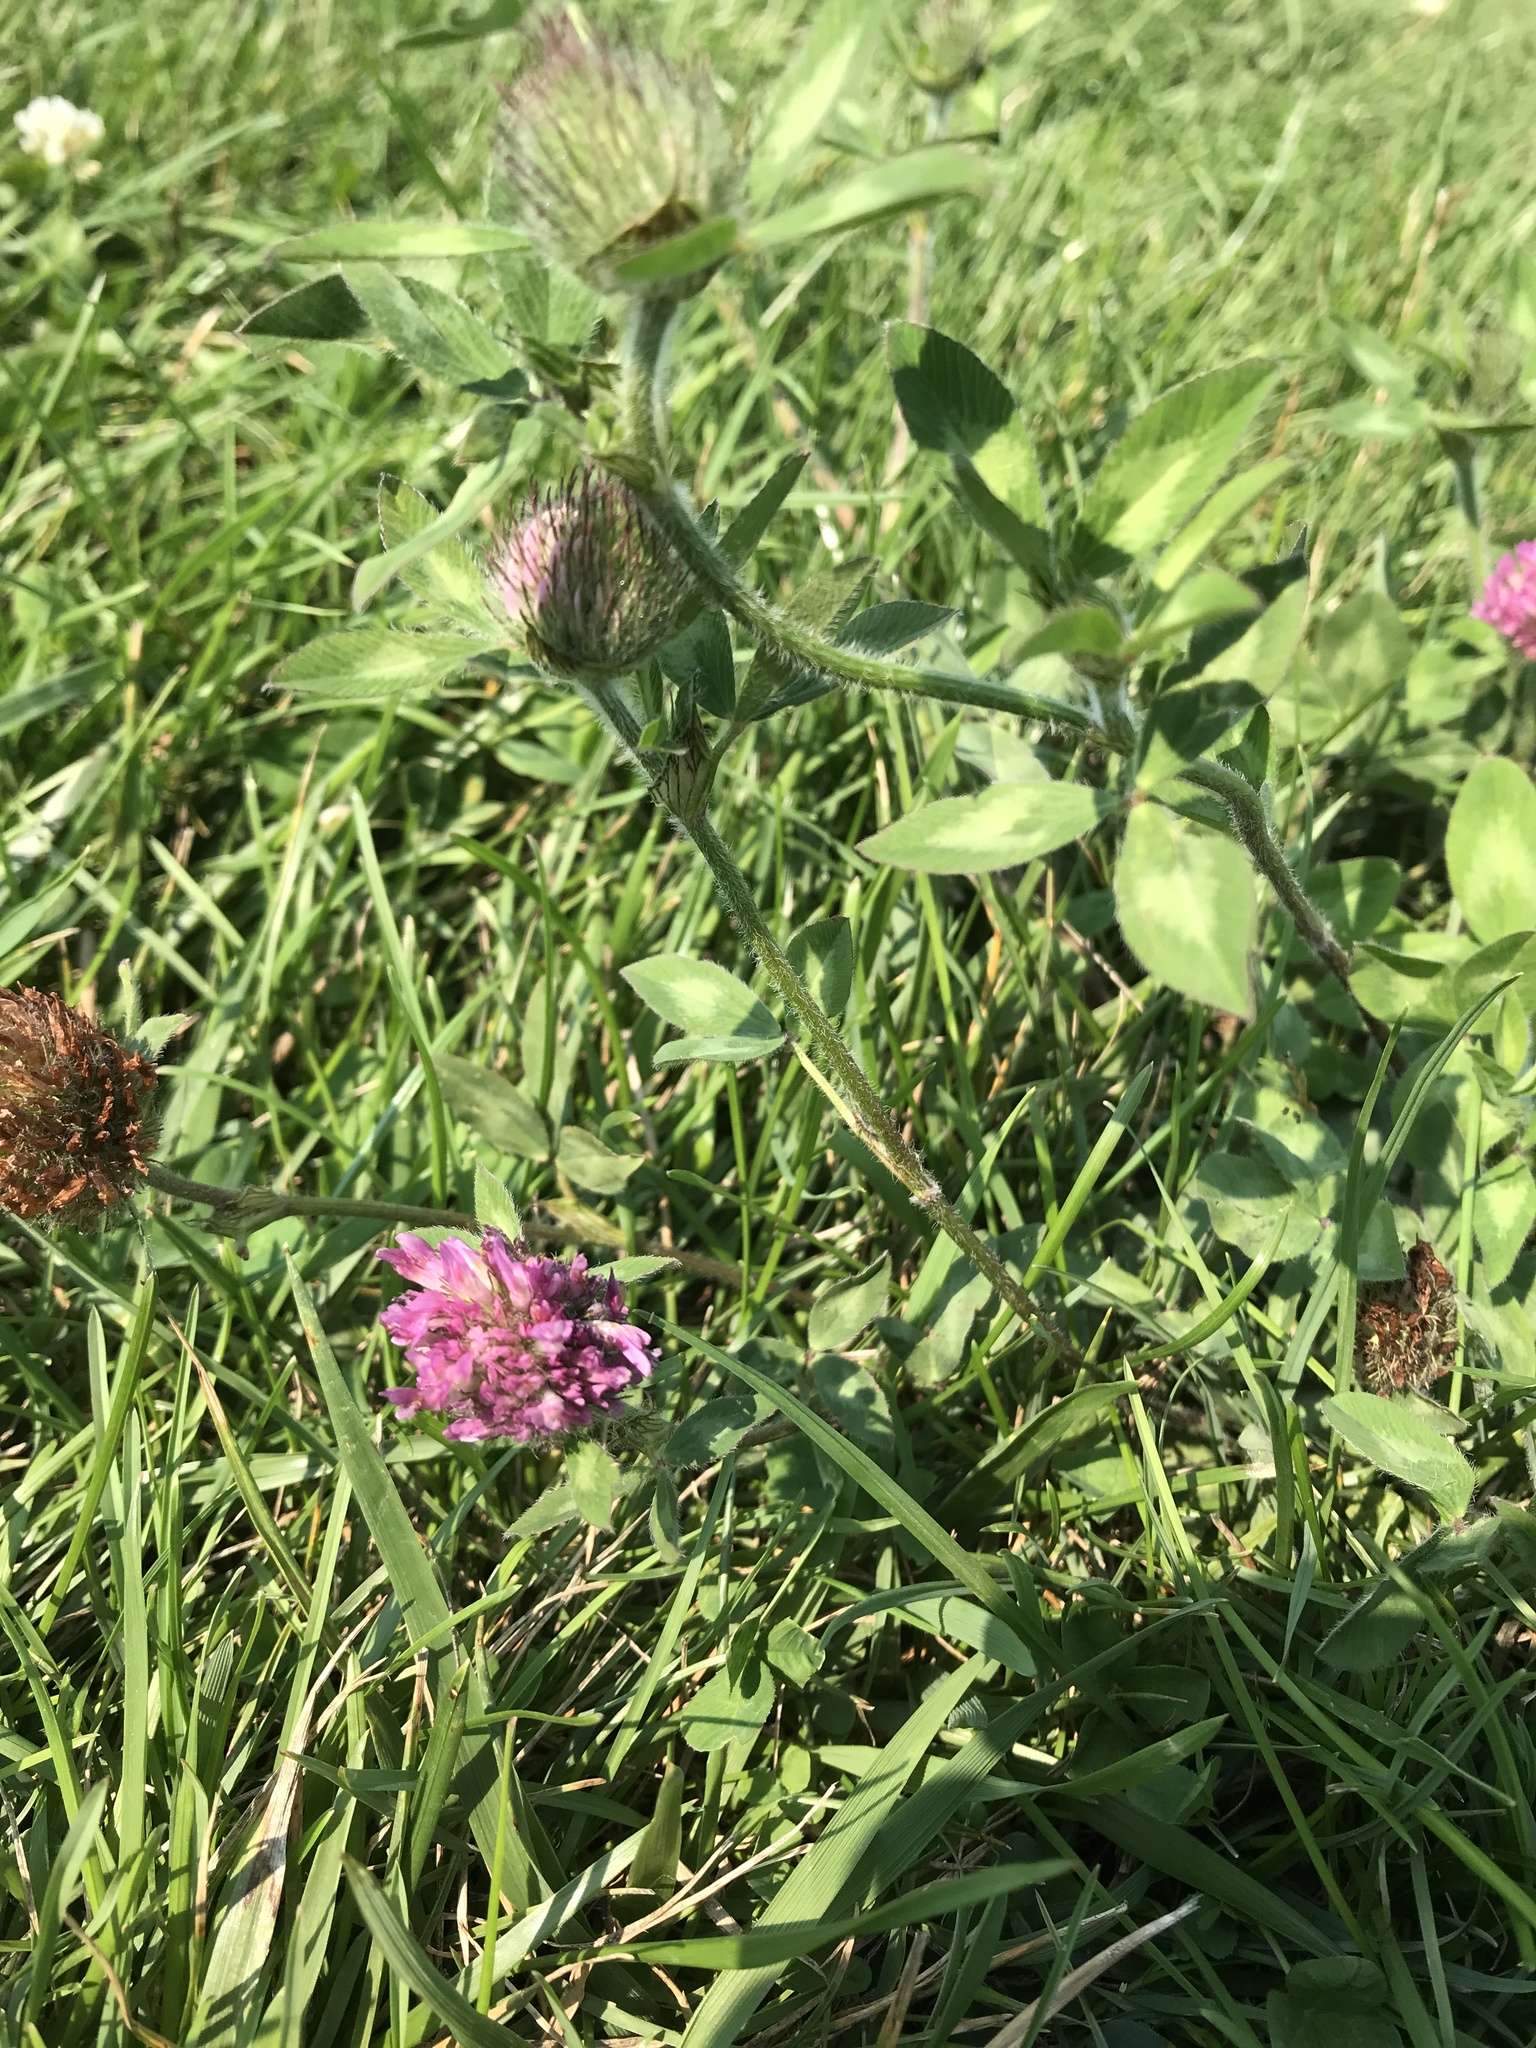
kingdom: Plantae
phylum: Tracheophyta
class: Magnoliopsida
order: Fabales
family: Fabaceae
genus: Trifolium
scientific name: Trifolium pratense
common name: Red clover
